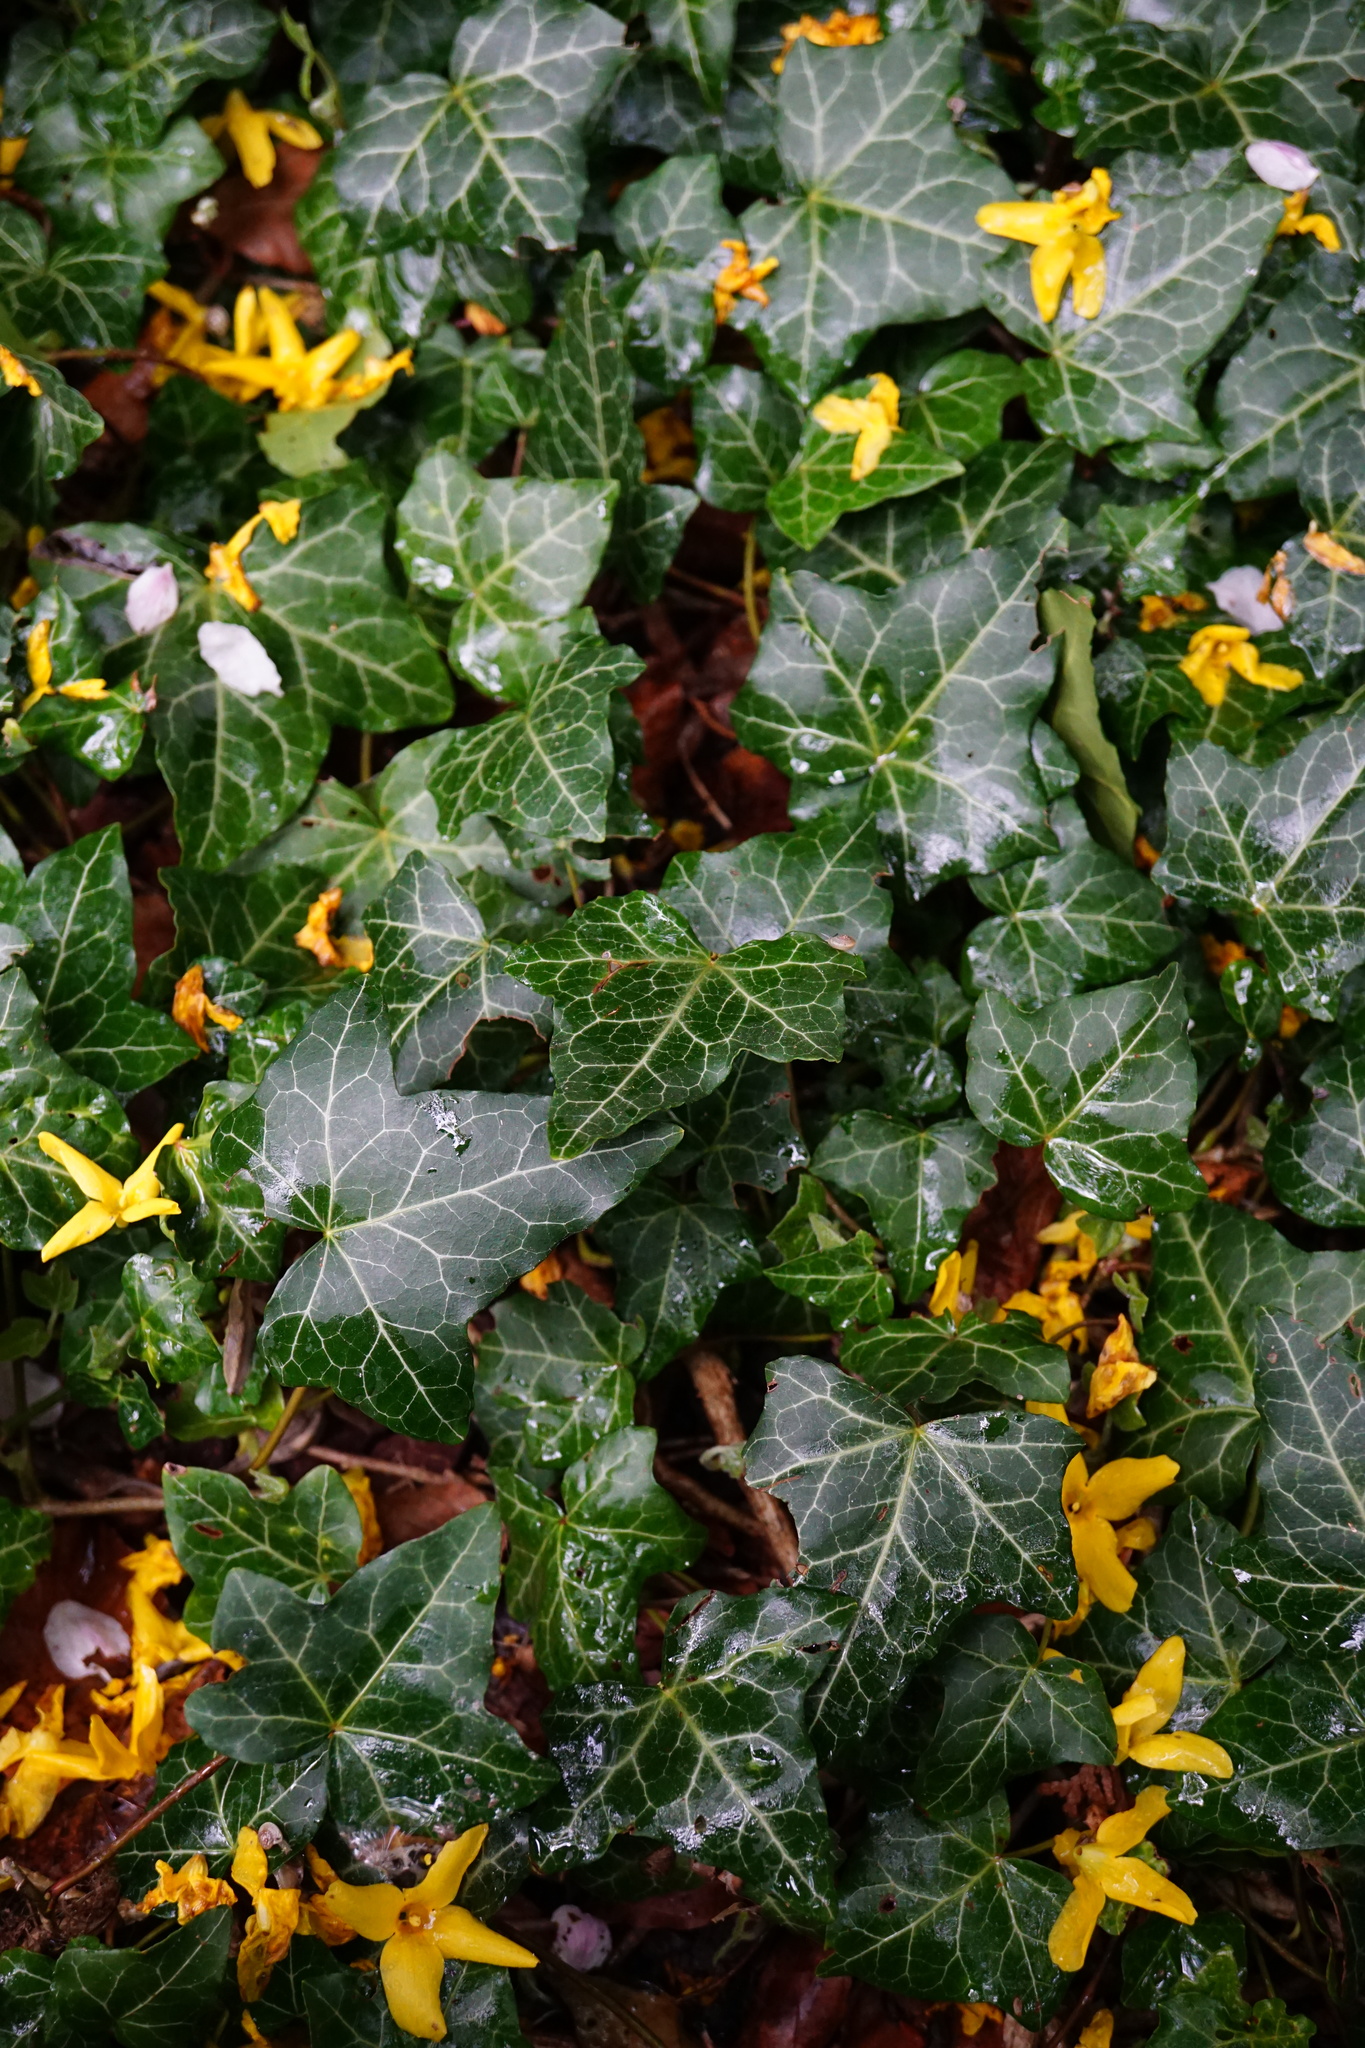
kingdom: Plantae
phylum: Tracheophyta
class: Magnoliopsida
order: Apiales
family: Araliaceae
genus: Hedera
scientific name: Hedera helix
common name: Ivy
